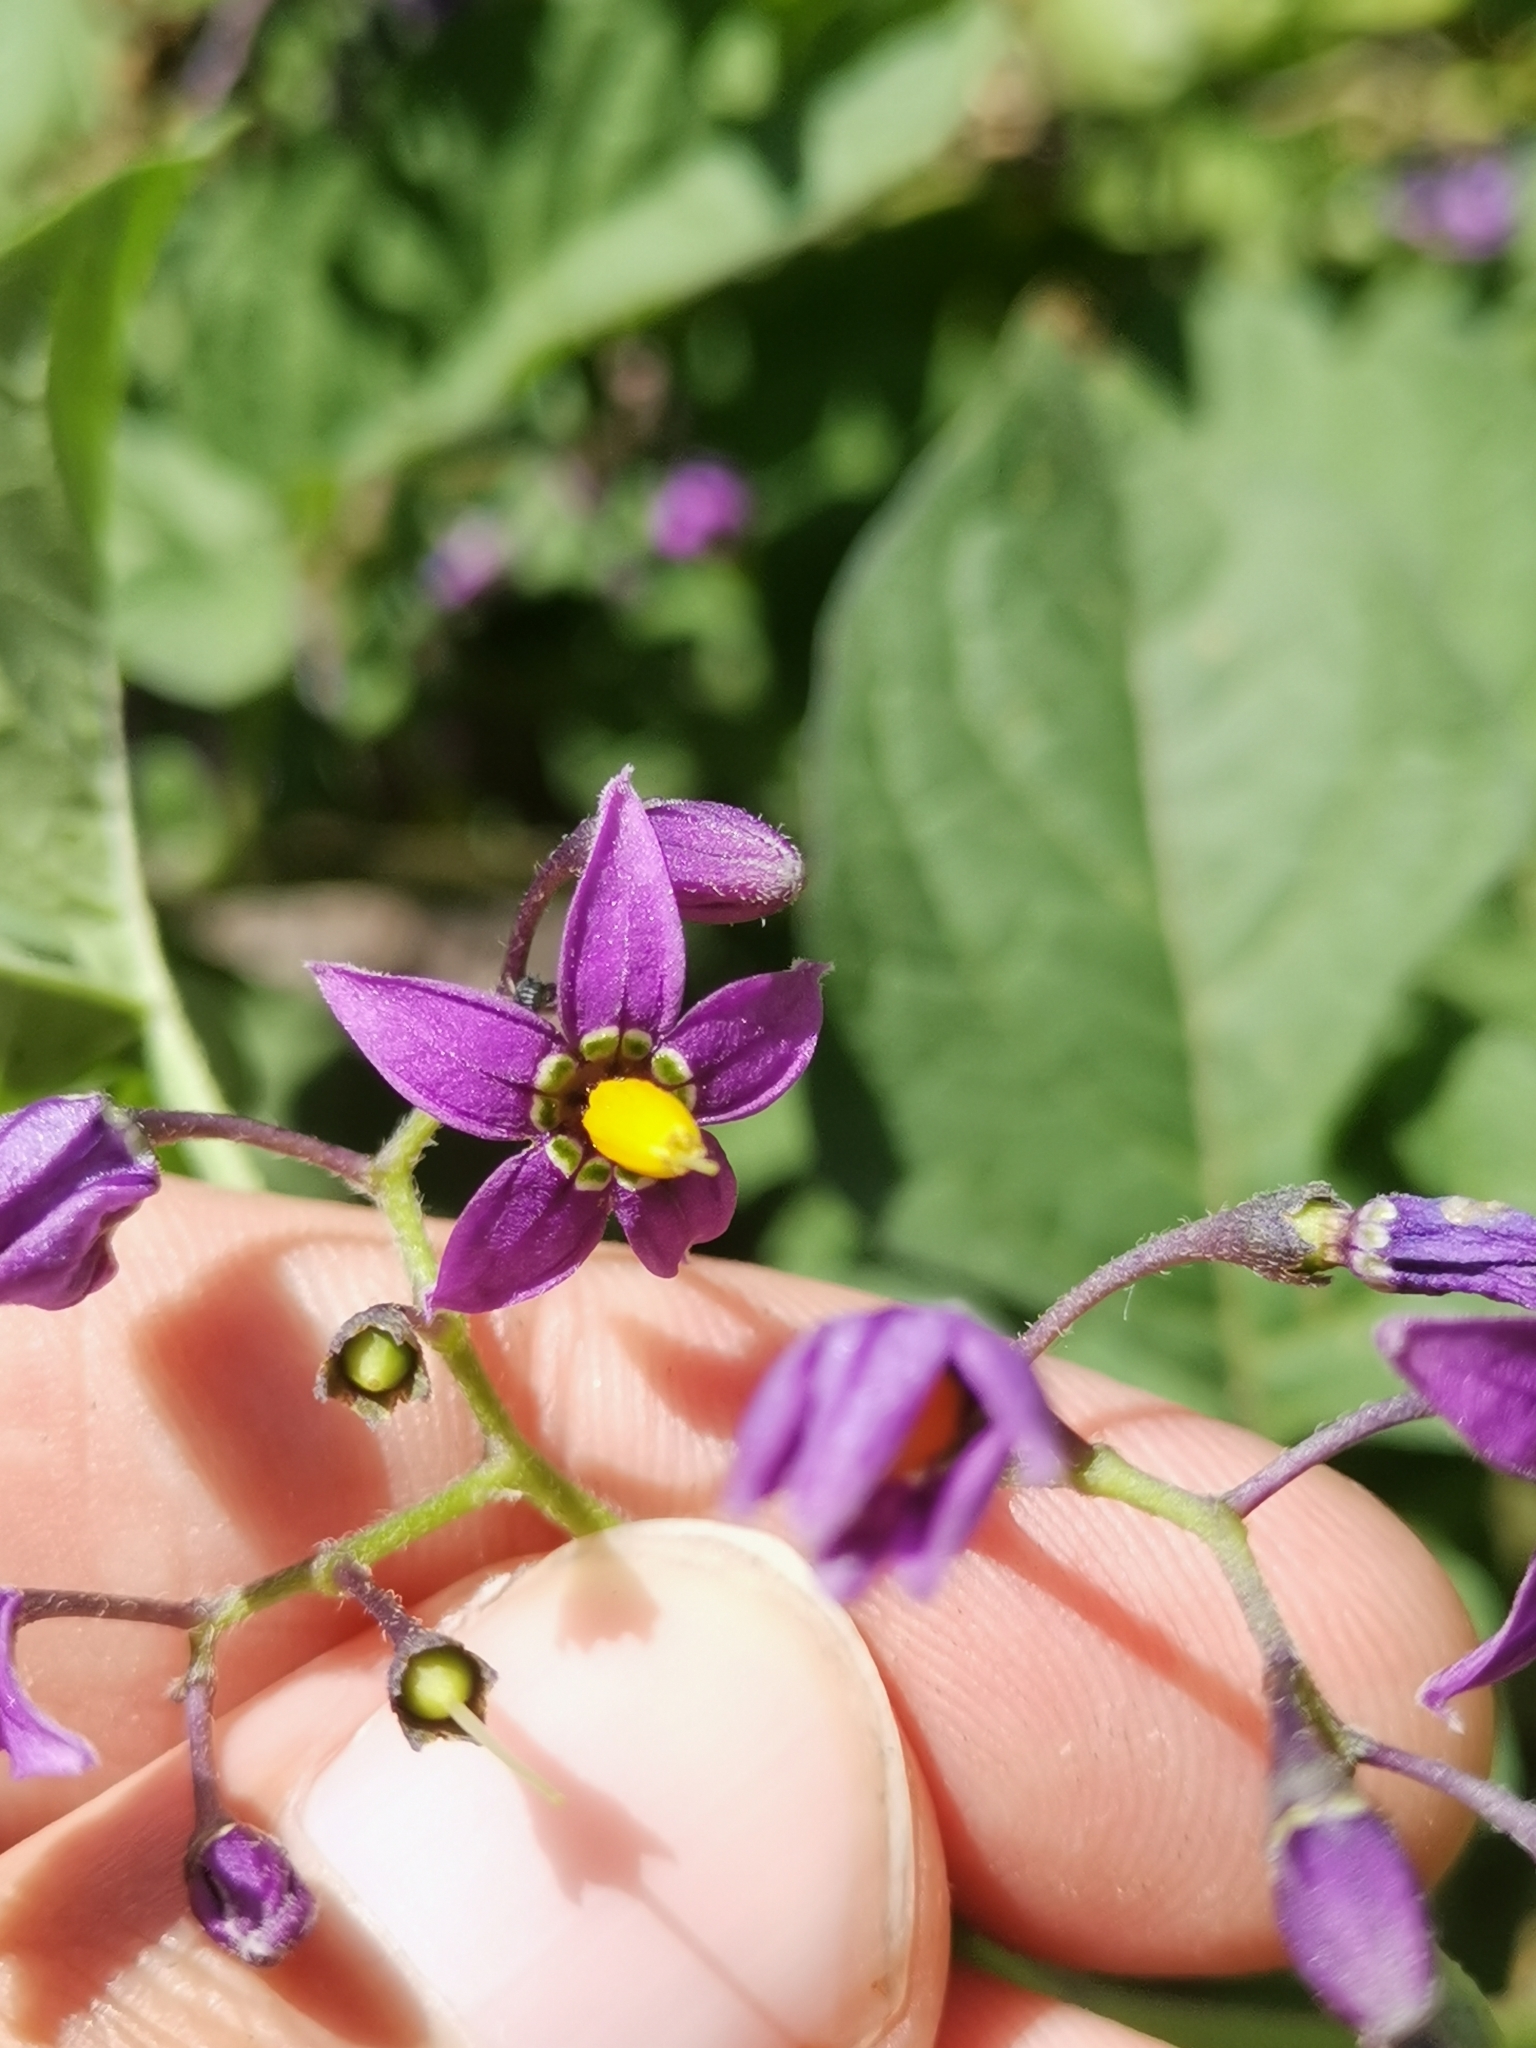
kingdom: Plantae
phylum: Tracheophyta
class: Magnoliopsida
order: Solanales
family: Solanaceae
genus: Solanum
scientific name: Solanum dulcamara
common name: Climbing nightshade
